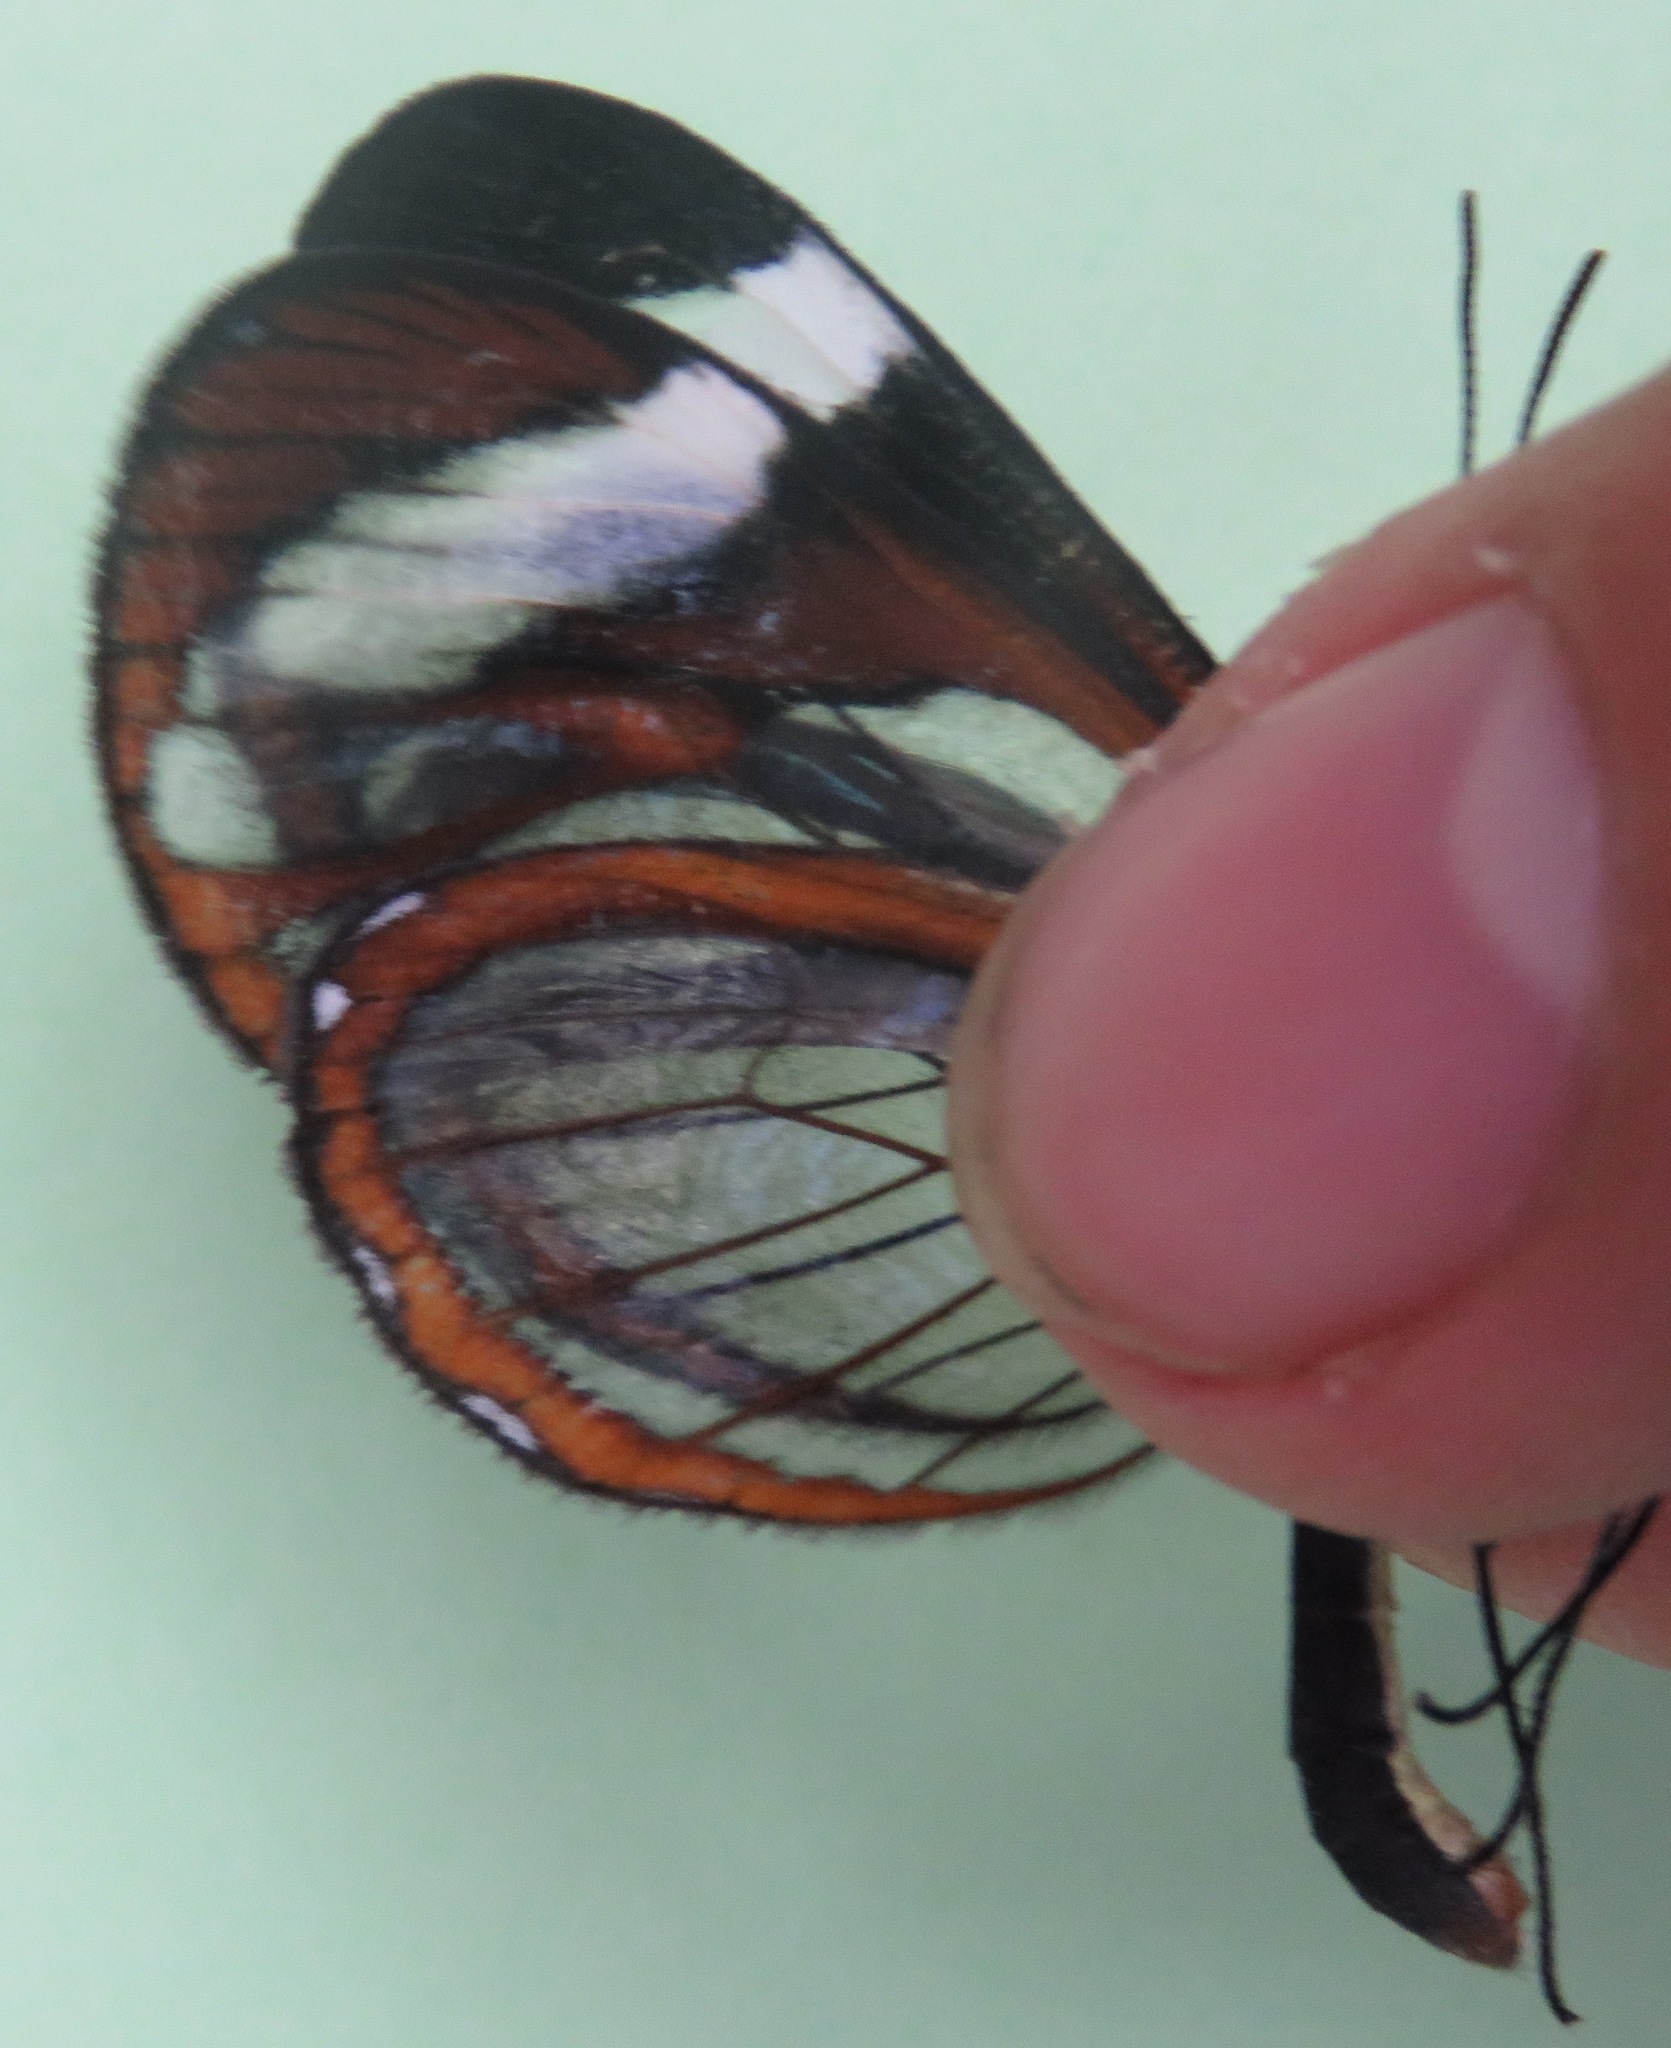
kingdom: Animalia
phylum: Arthropoda
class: Insecta
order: Lepidoptera
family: Nymphalidae
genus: Ithomia
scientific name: Ithomia patilla
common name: Patilla clearwing
